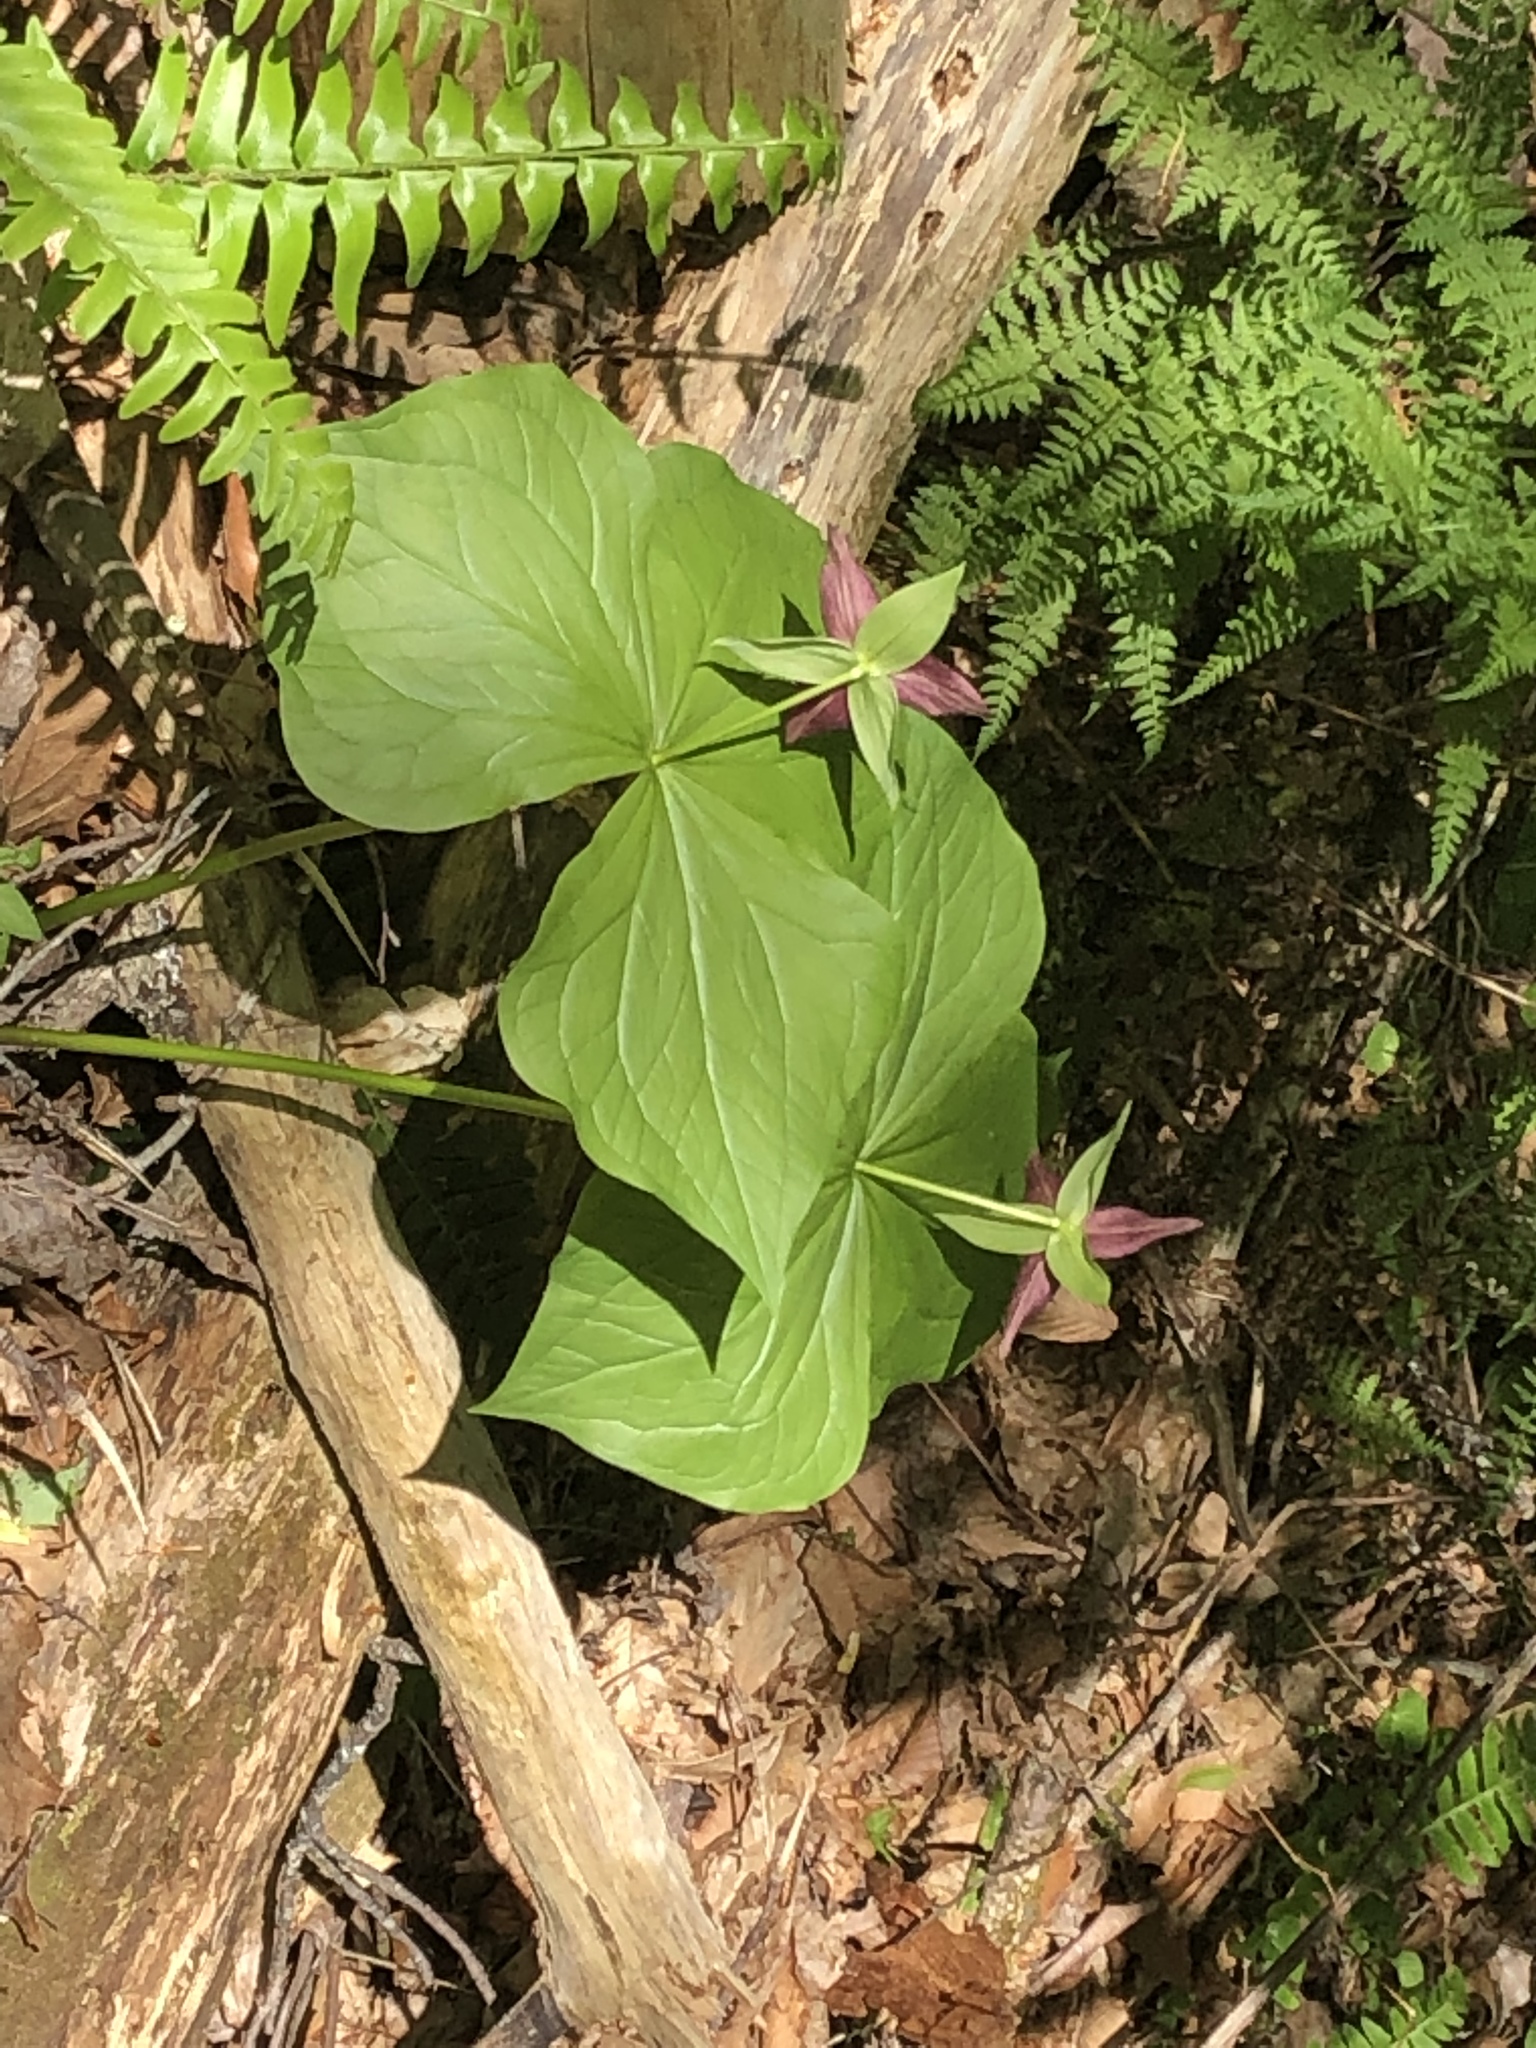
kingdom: Plantae
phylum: Tracheophyta
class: Liliopsida
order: Liliales
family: Melanthiaceae
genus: Trillium
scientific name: Trillium erectum
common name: Purple trillium
